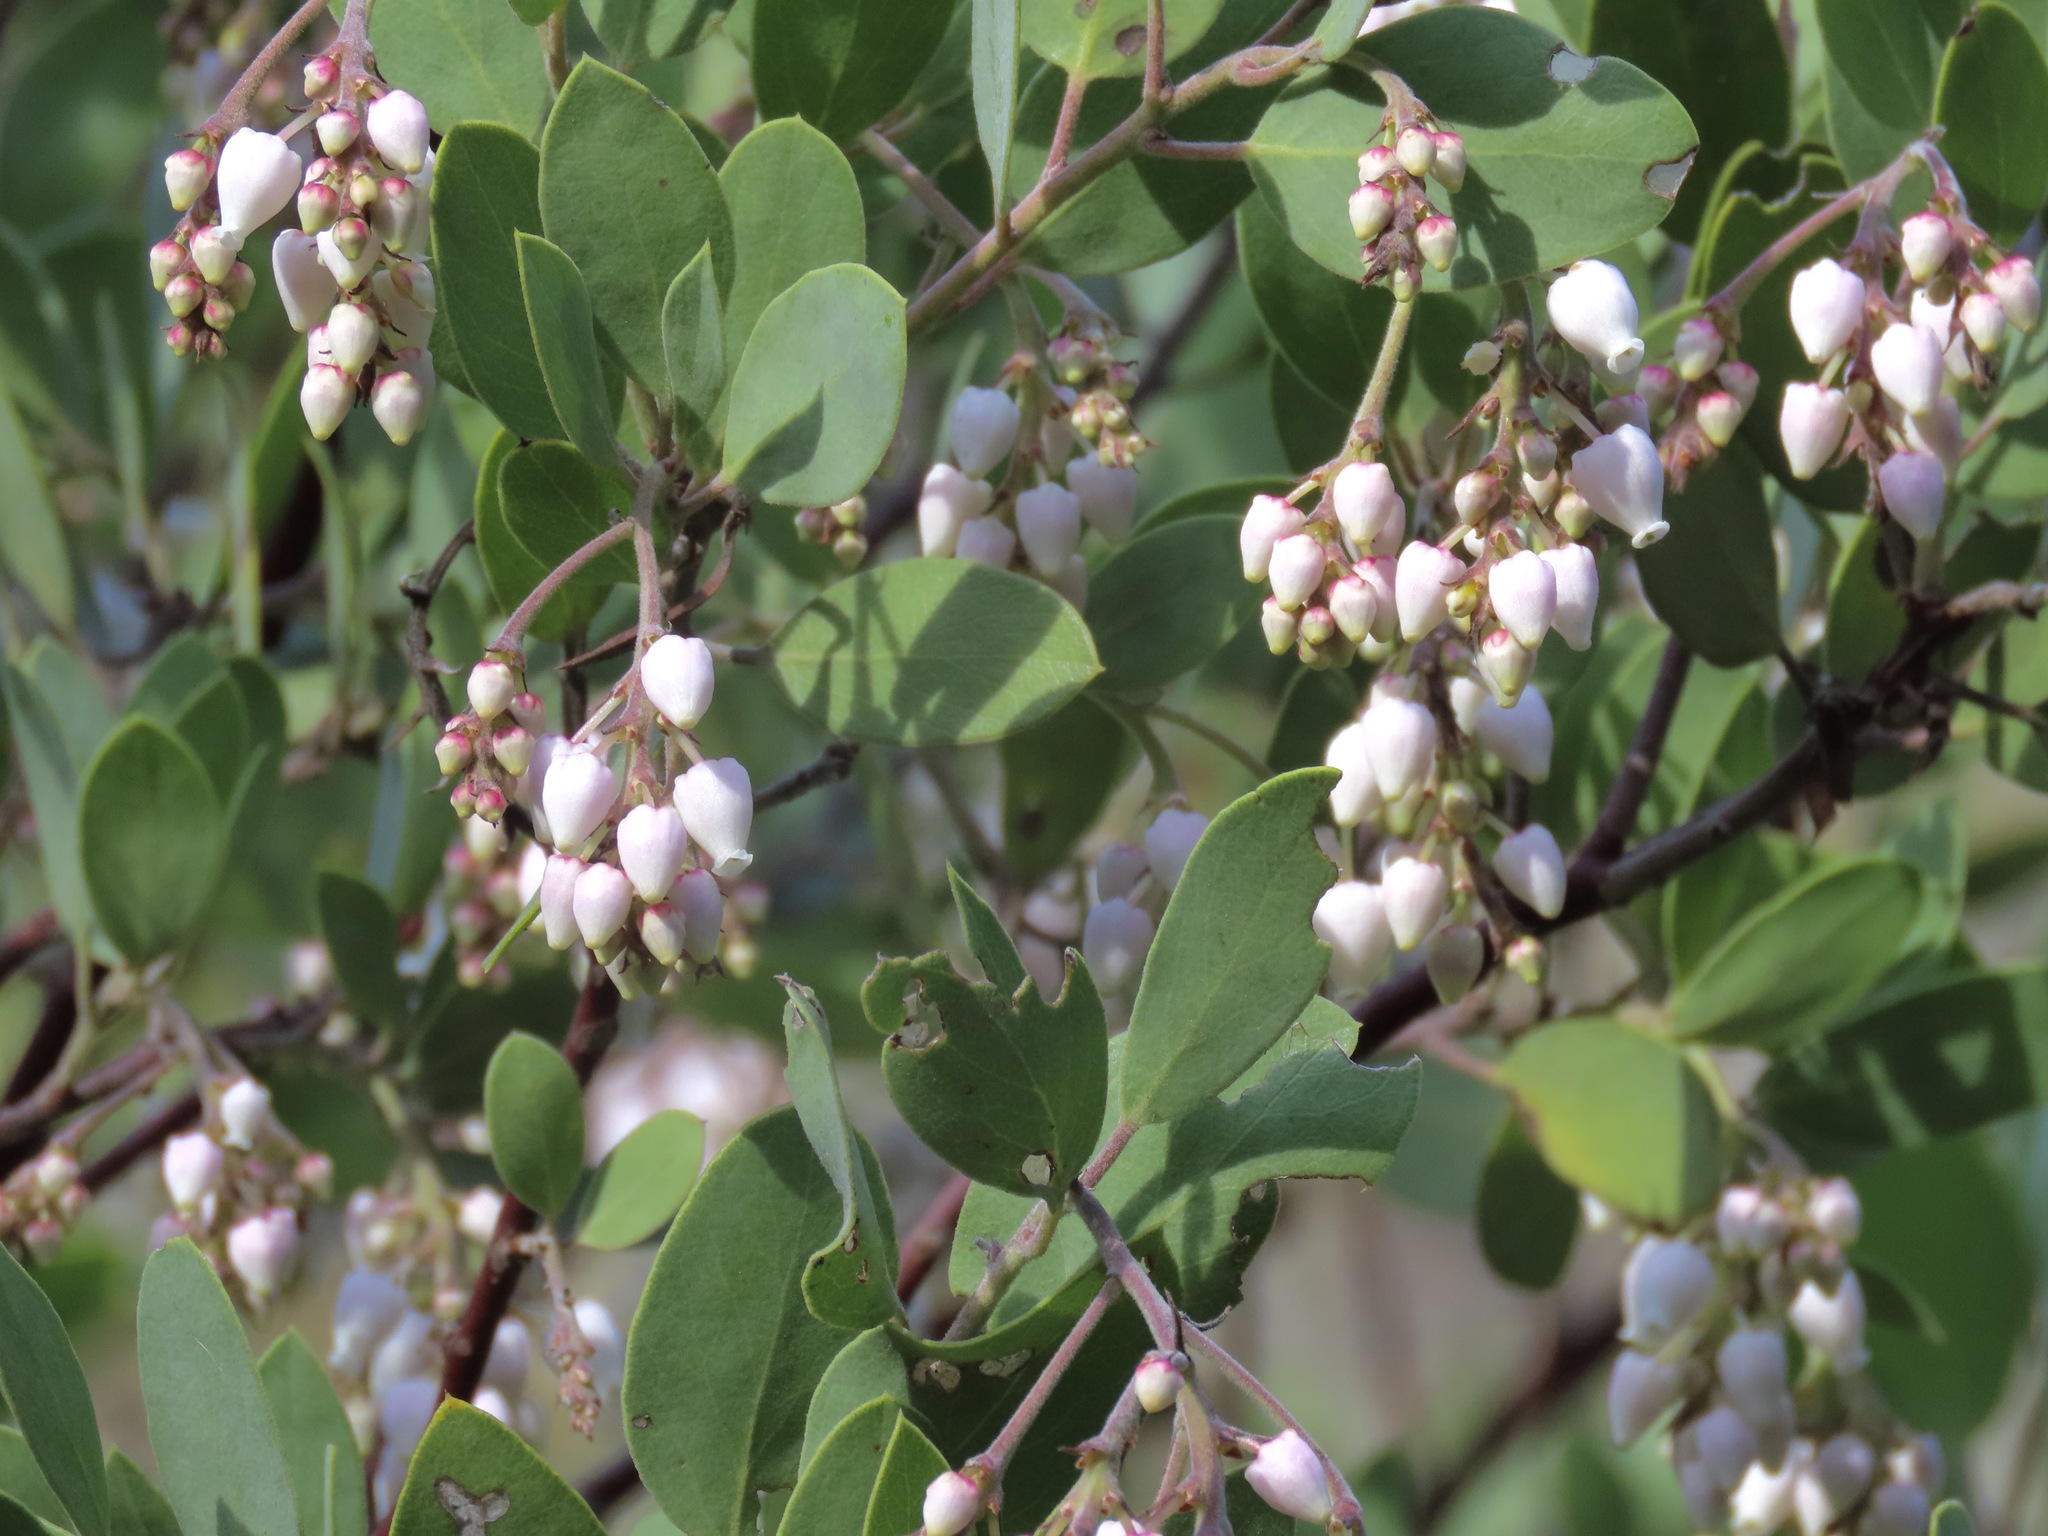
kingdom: Plantae
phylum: Tracheophyta
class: Magnoliopsida
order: Ericales
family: Ericaceae
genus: Arctostaphylos
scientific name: Arctostaphylos manzanita
